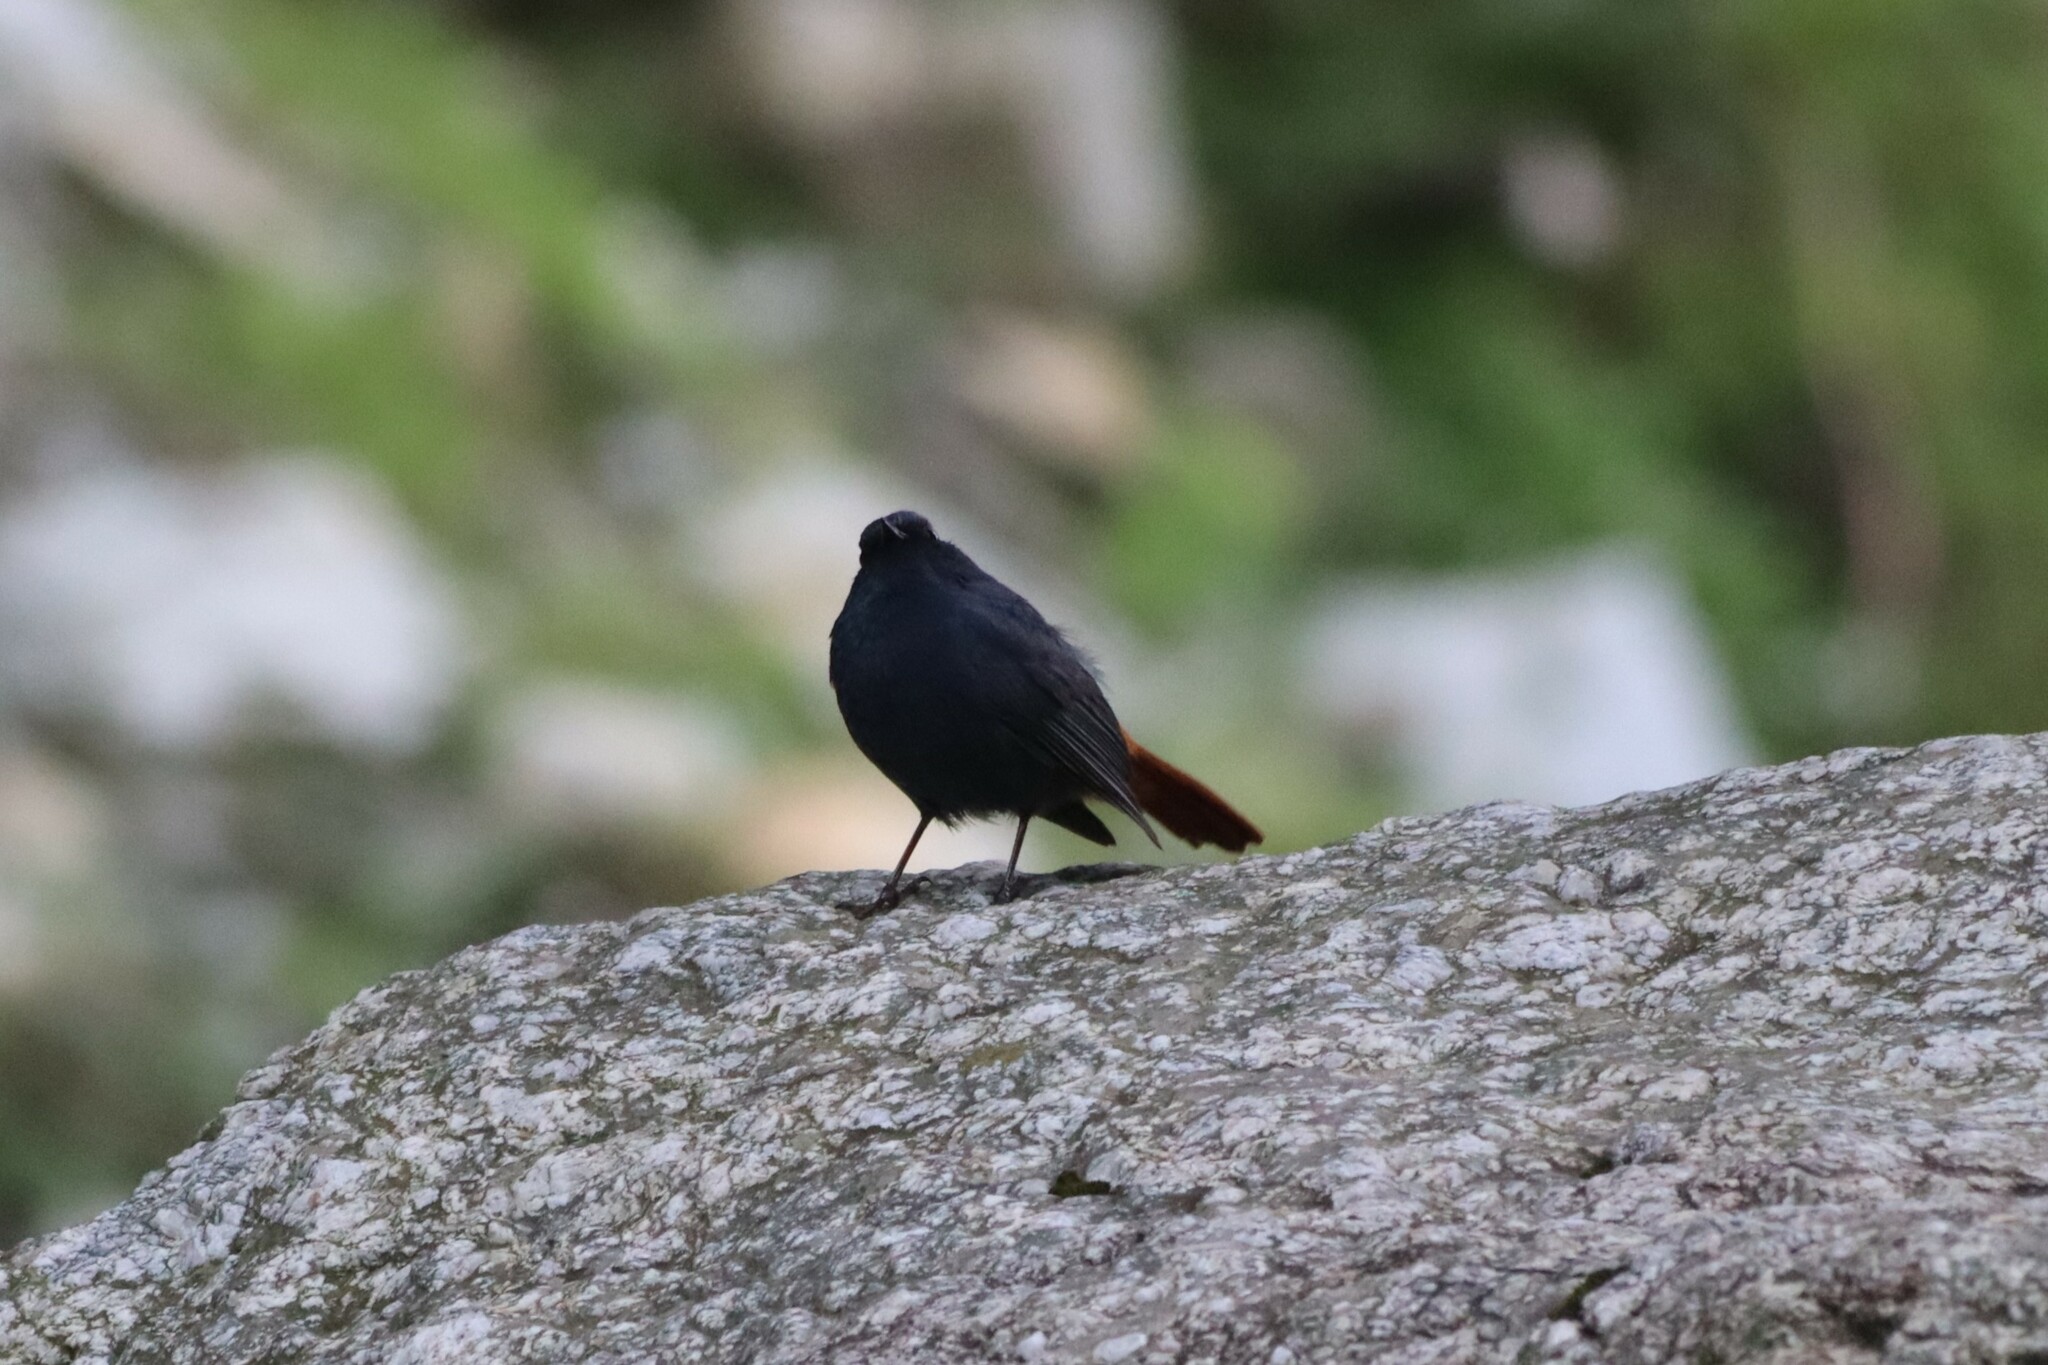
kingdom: Animalia
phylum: Chordata
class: Aves
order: Passeriformes
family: Muscicapidae
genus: Phoenicurus
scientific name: Phoenicurus fuliginosus
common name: Plumbeous water redstart
